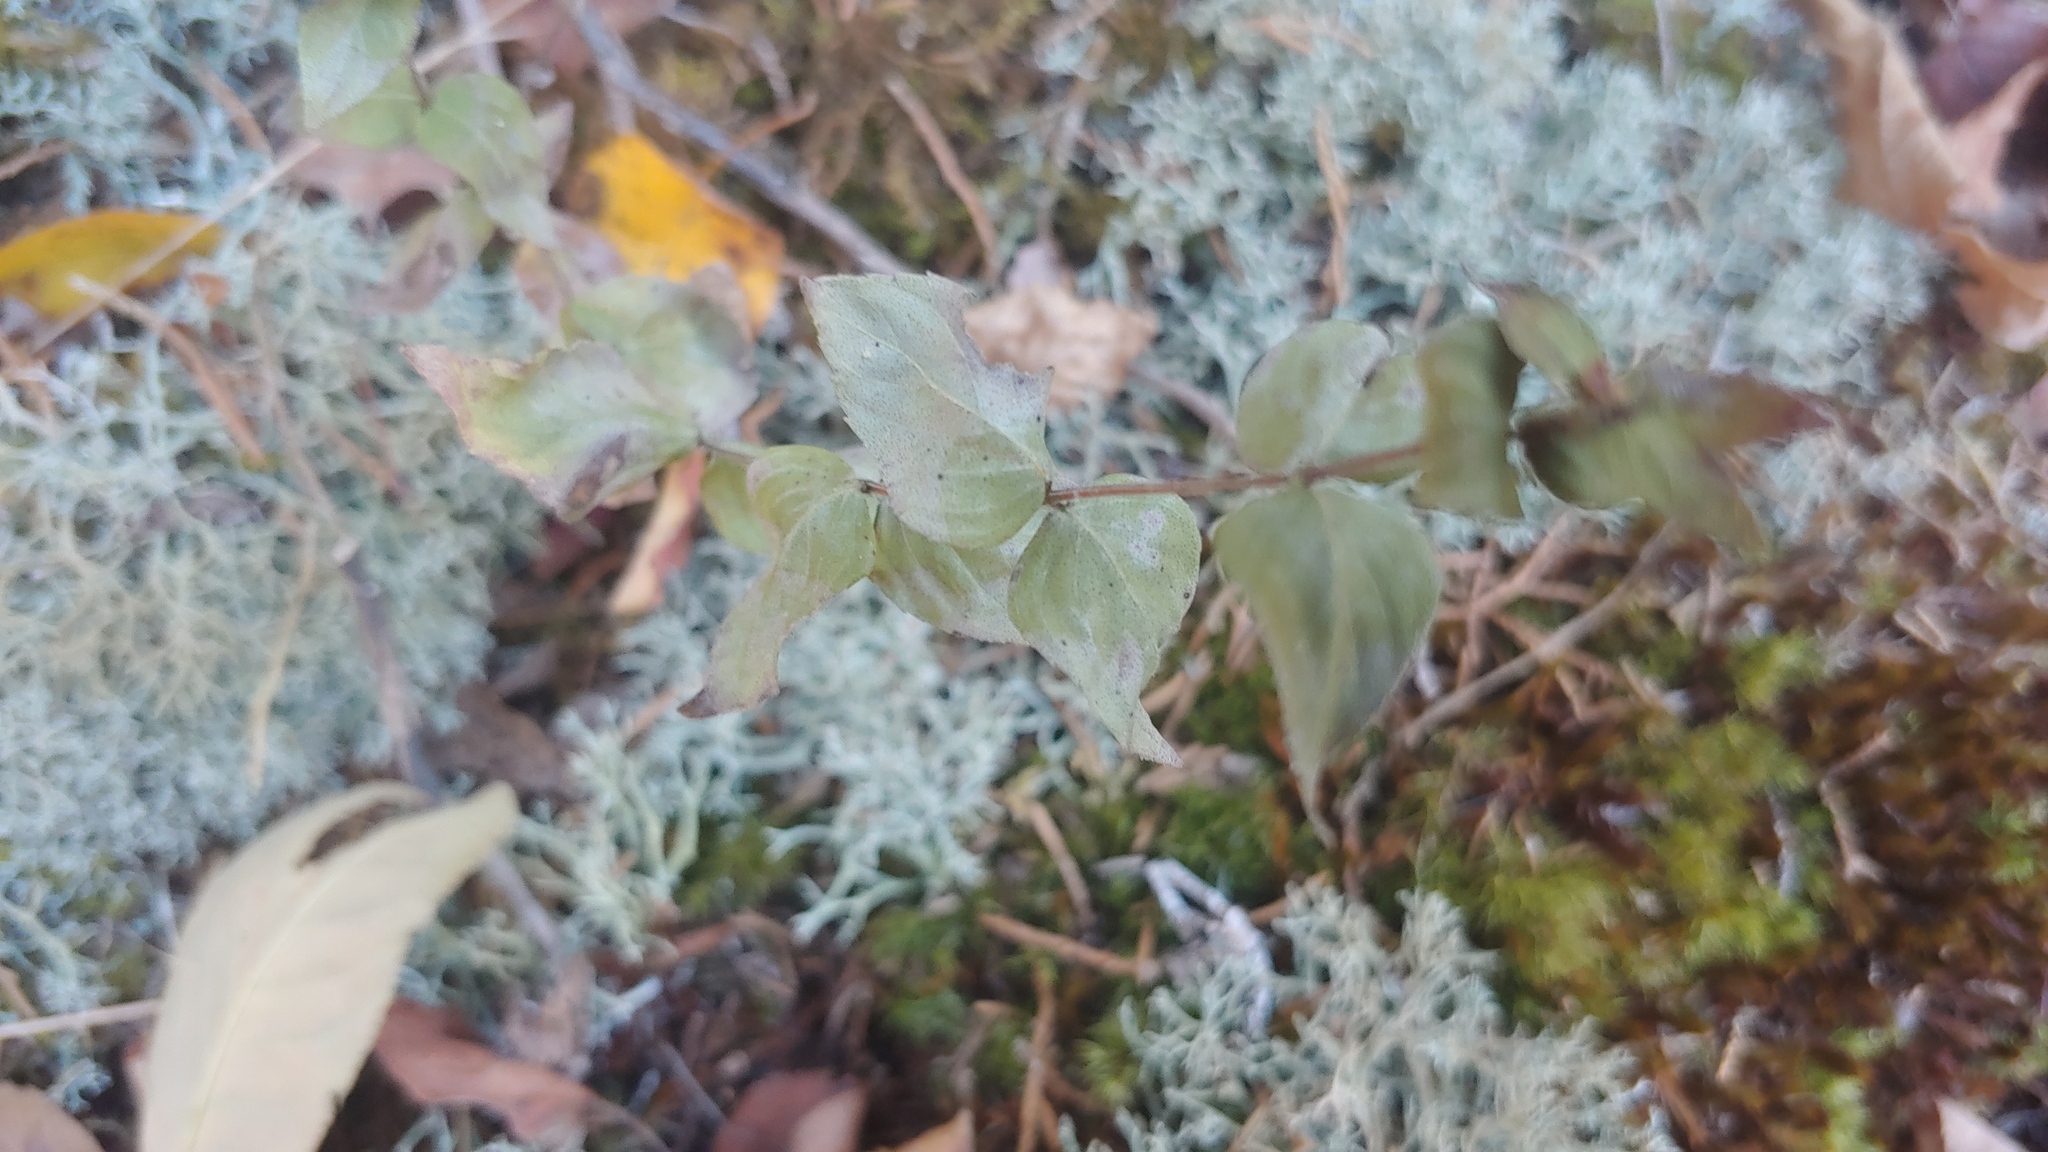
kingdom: Plantae
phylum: Tracheophyta
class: Magnoliopsida
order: Lamiales
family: Lamiaceae
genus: Cunila
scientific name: Cunila origanoides
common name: American dittany
